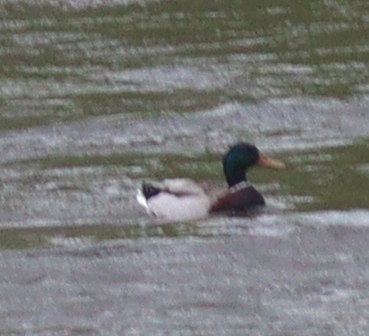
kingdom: Animalia
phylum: Chordata
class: Aves
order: Anseriformes
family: Anatidae
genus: Anas
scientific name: Anas platyrhynchos
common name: Mallard
